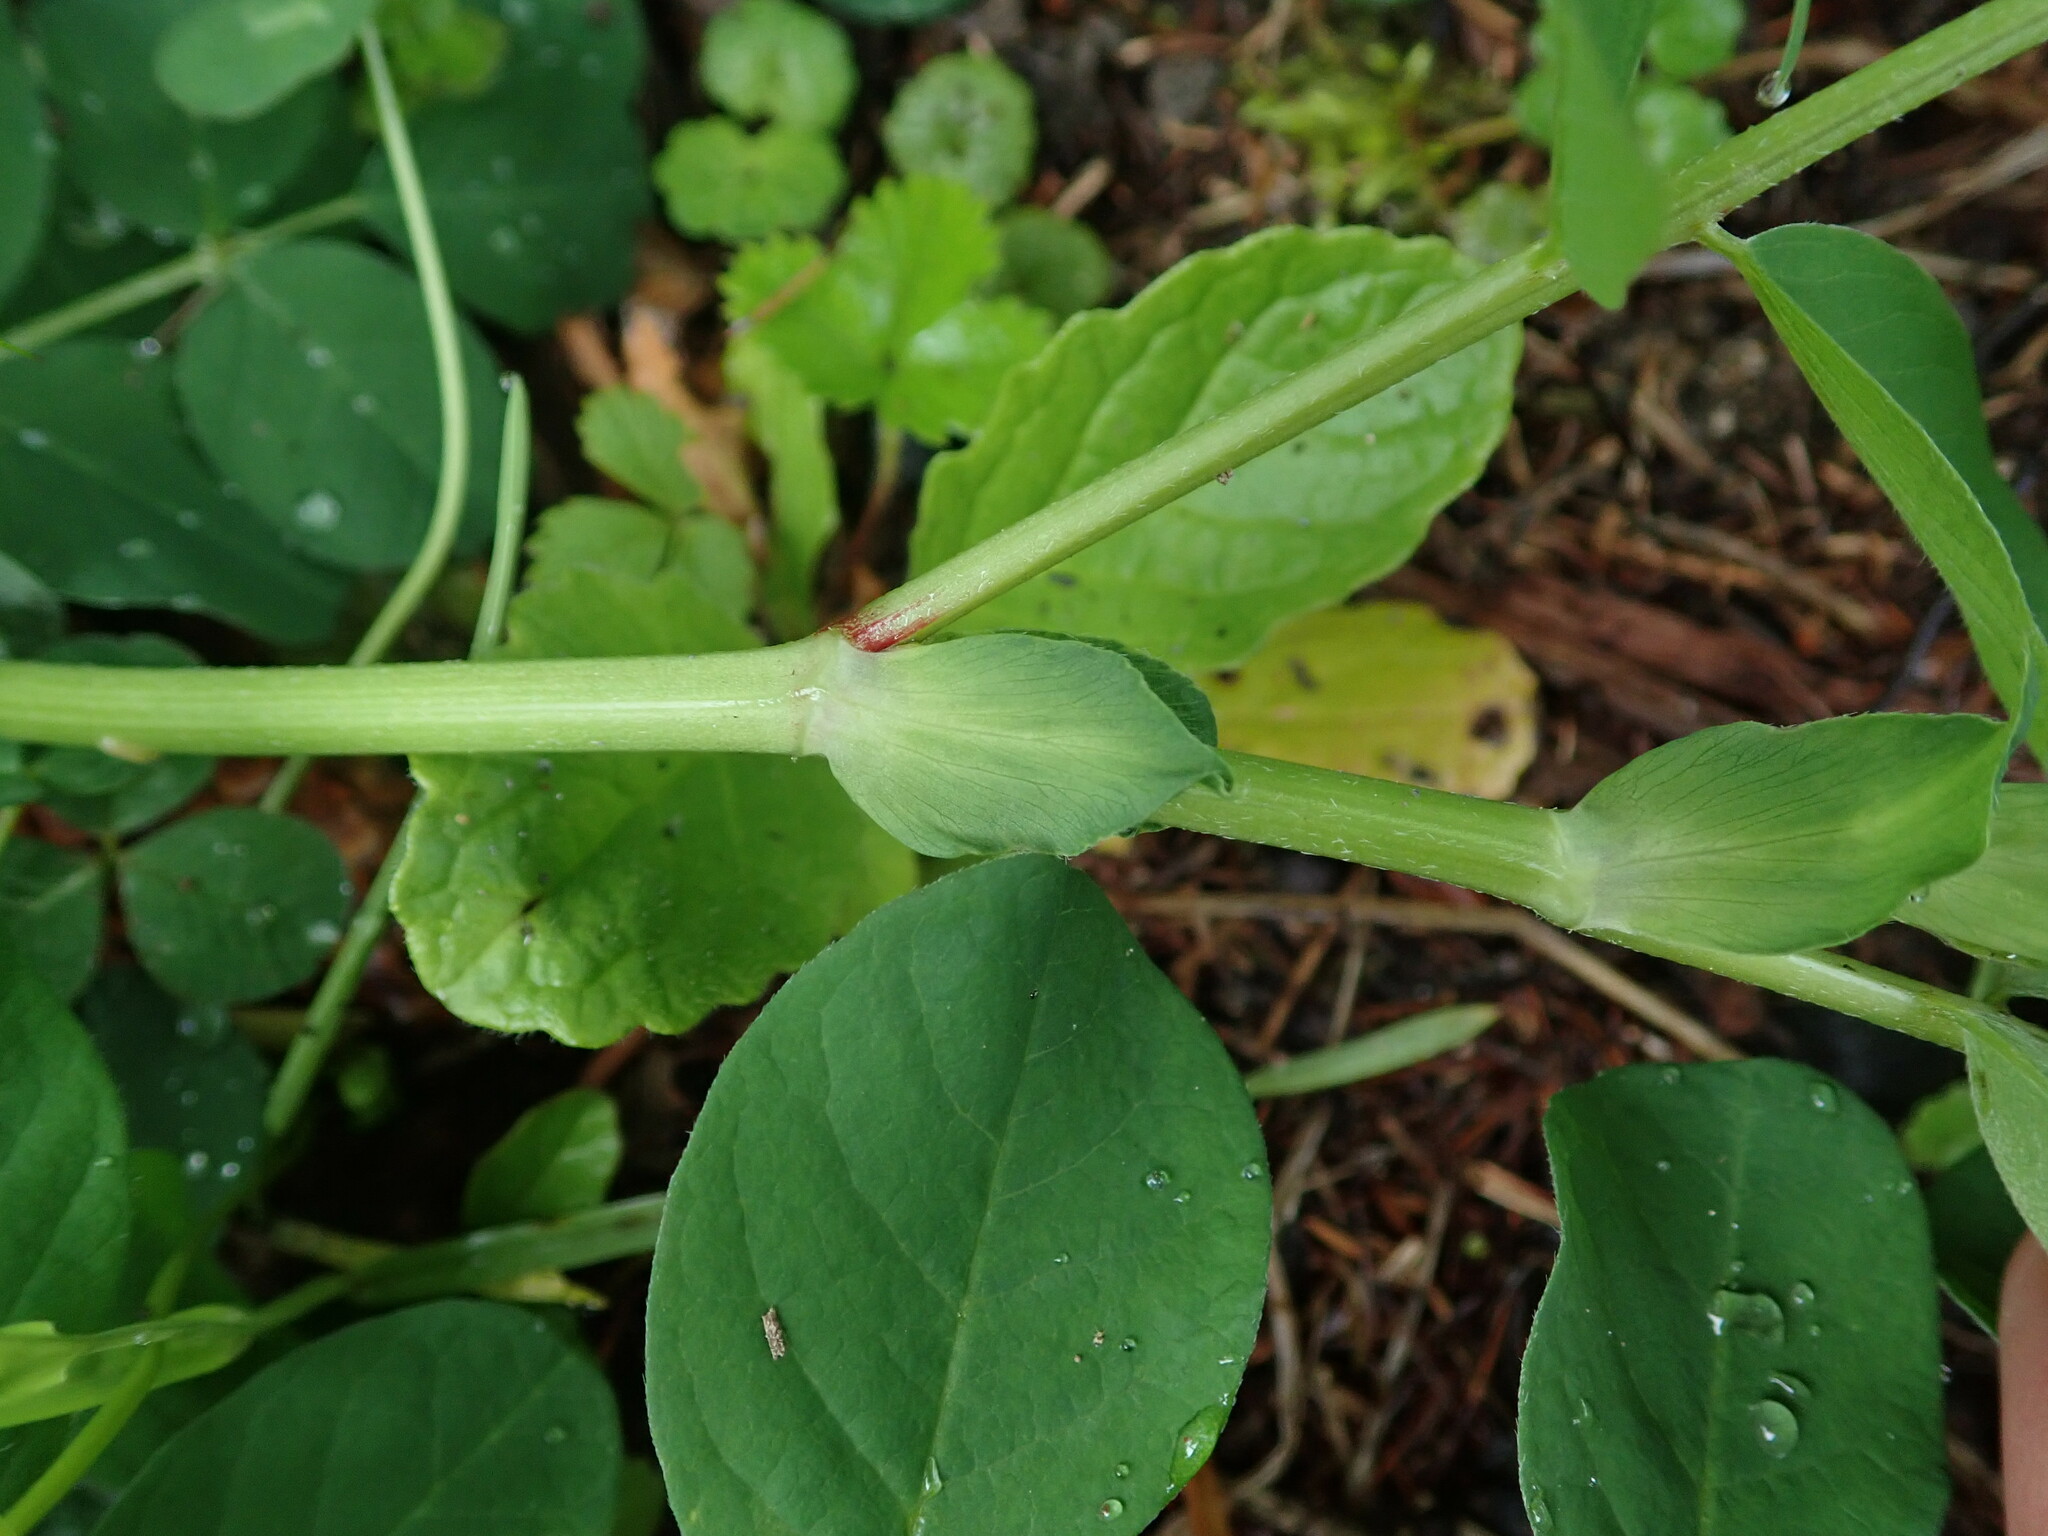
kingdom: Plantae
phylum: Tracheophyta
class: Magnoliopsida
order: Fabales
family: Fabaceae
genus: Astragalus
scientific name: Astragalus glycyphyllos
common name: Wild liquorice
